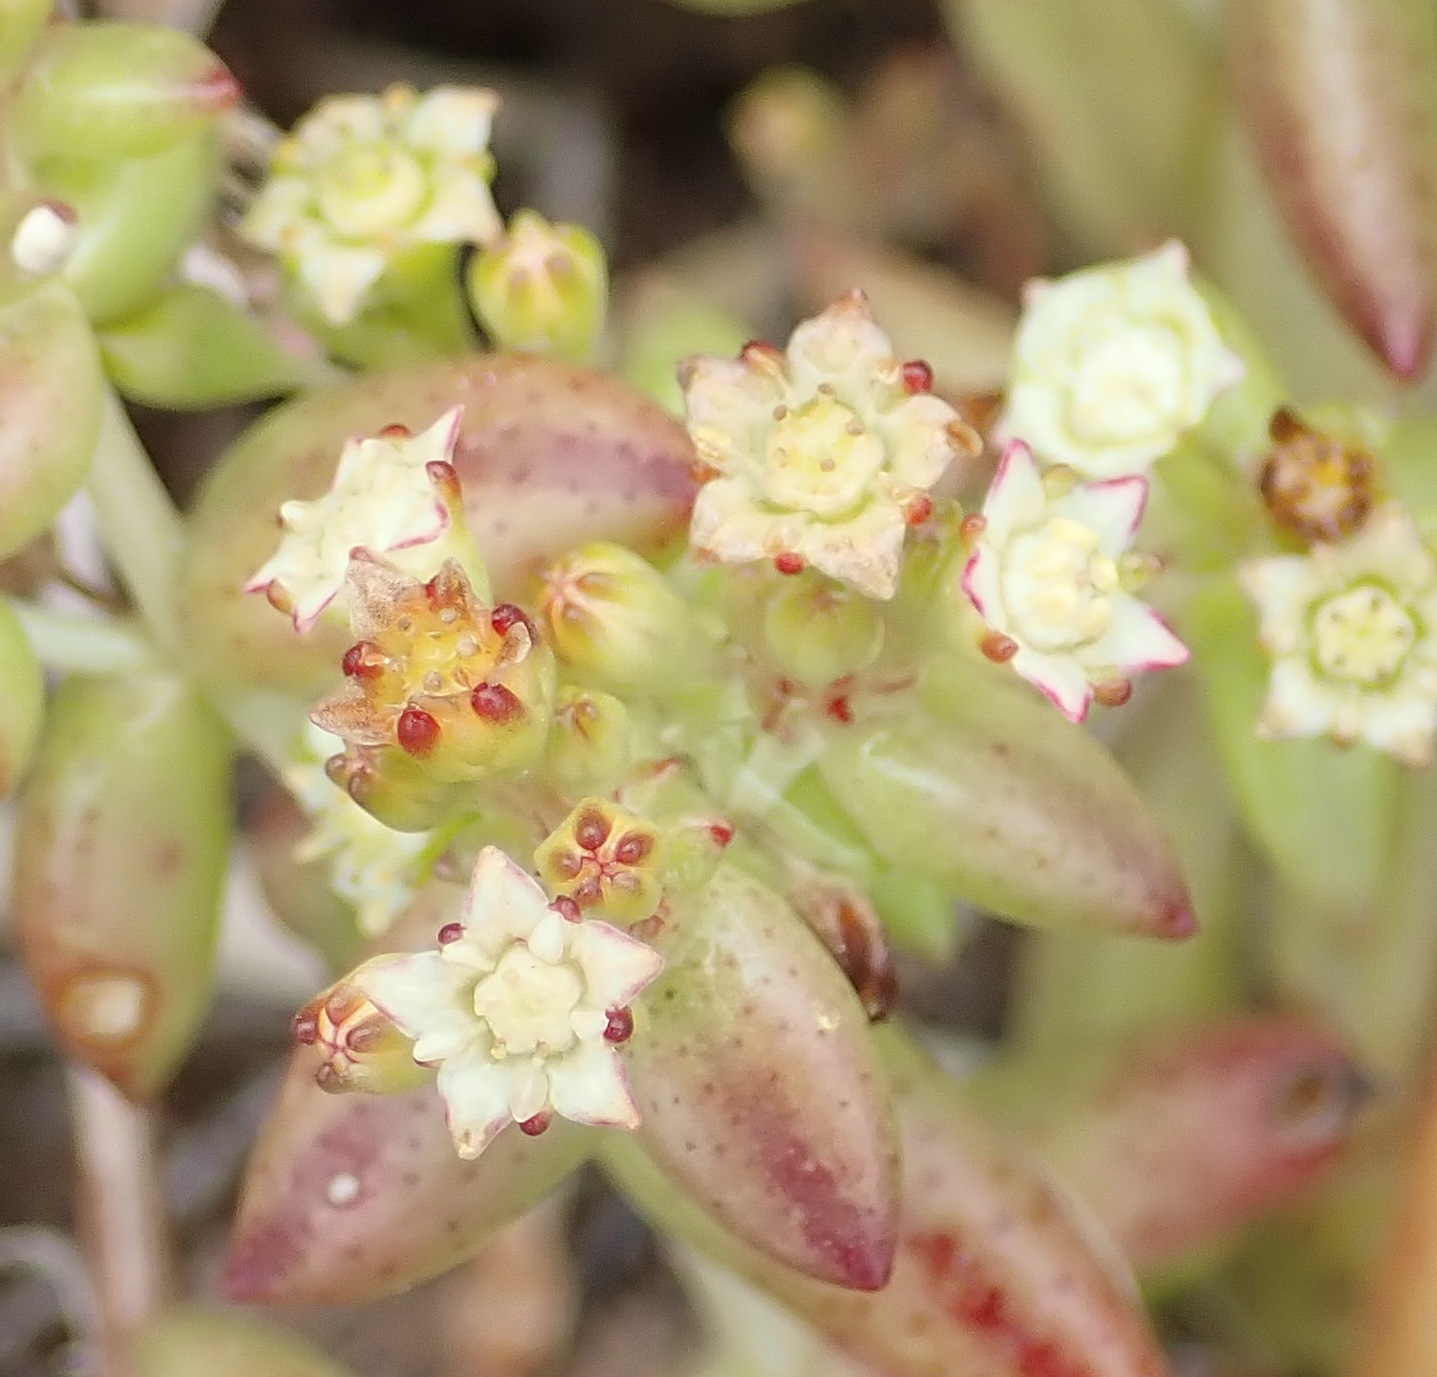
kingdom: Plantae
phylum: Tracheophyta
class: Magnoliopsida
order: Saxifragales
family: Crassulaceae
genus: Crassula
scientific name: Crassula expansa
